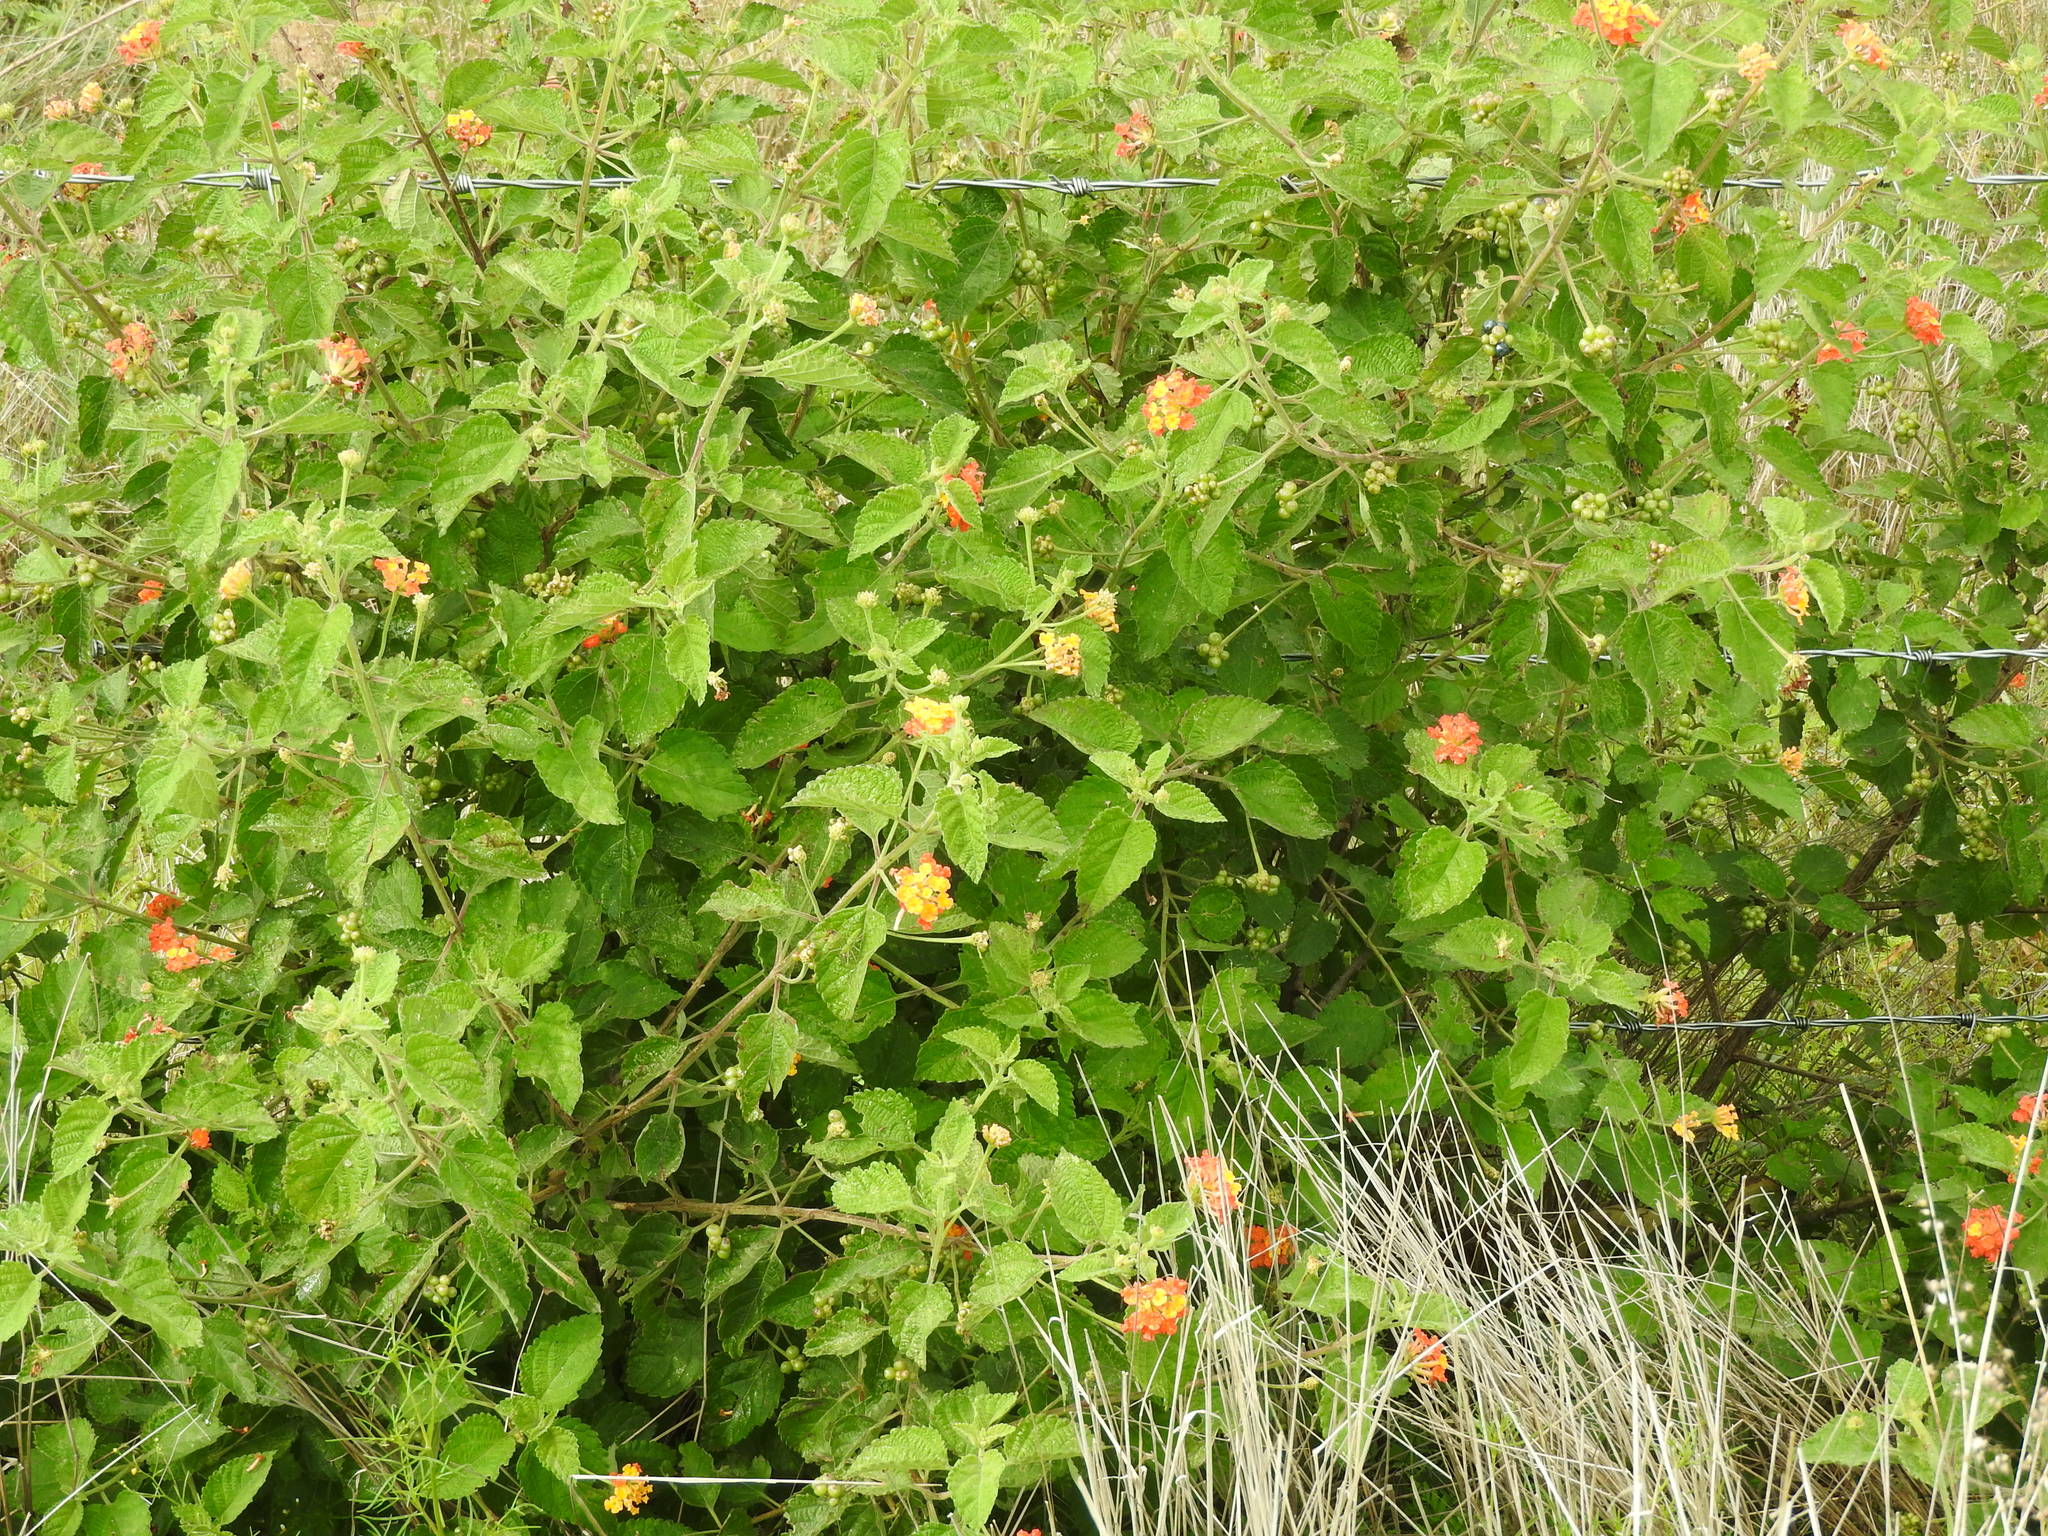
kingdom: Plantae
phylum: Tracheophyta
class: Magnoliopsida
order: Lamiales
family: Verbenaceae
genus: Lantana
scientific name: Lantana camara
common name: Lantana
